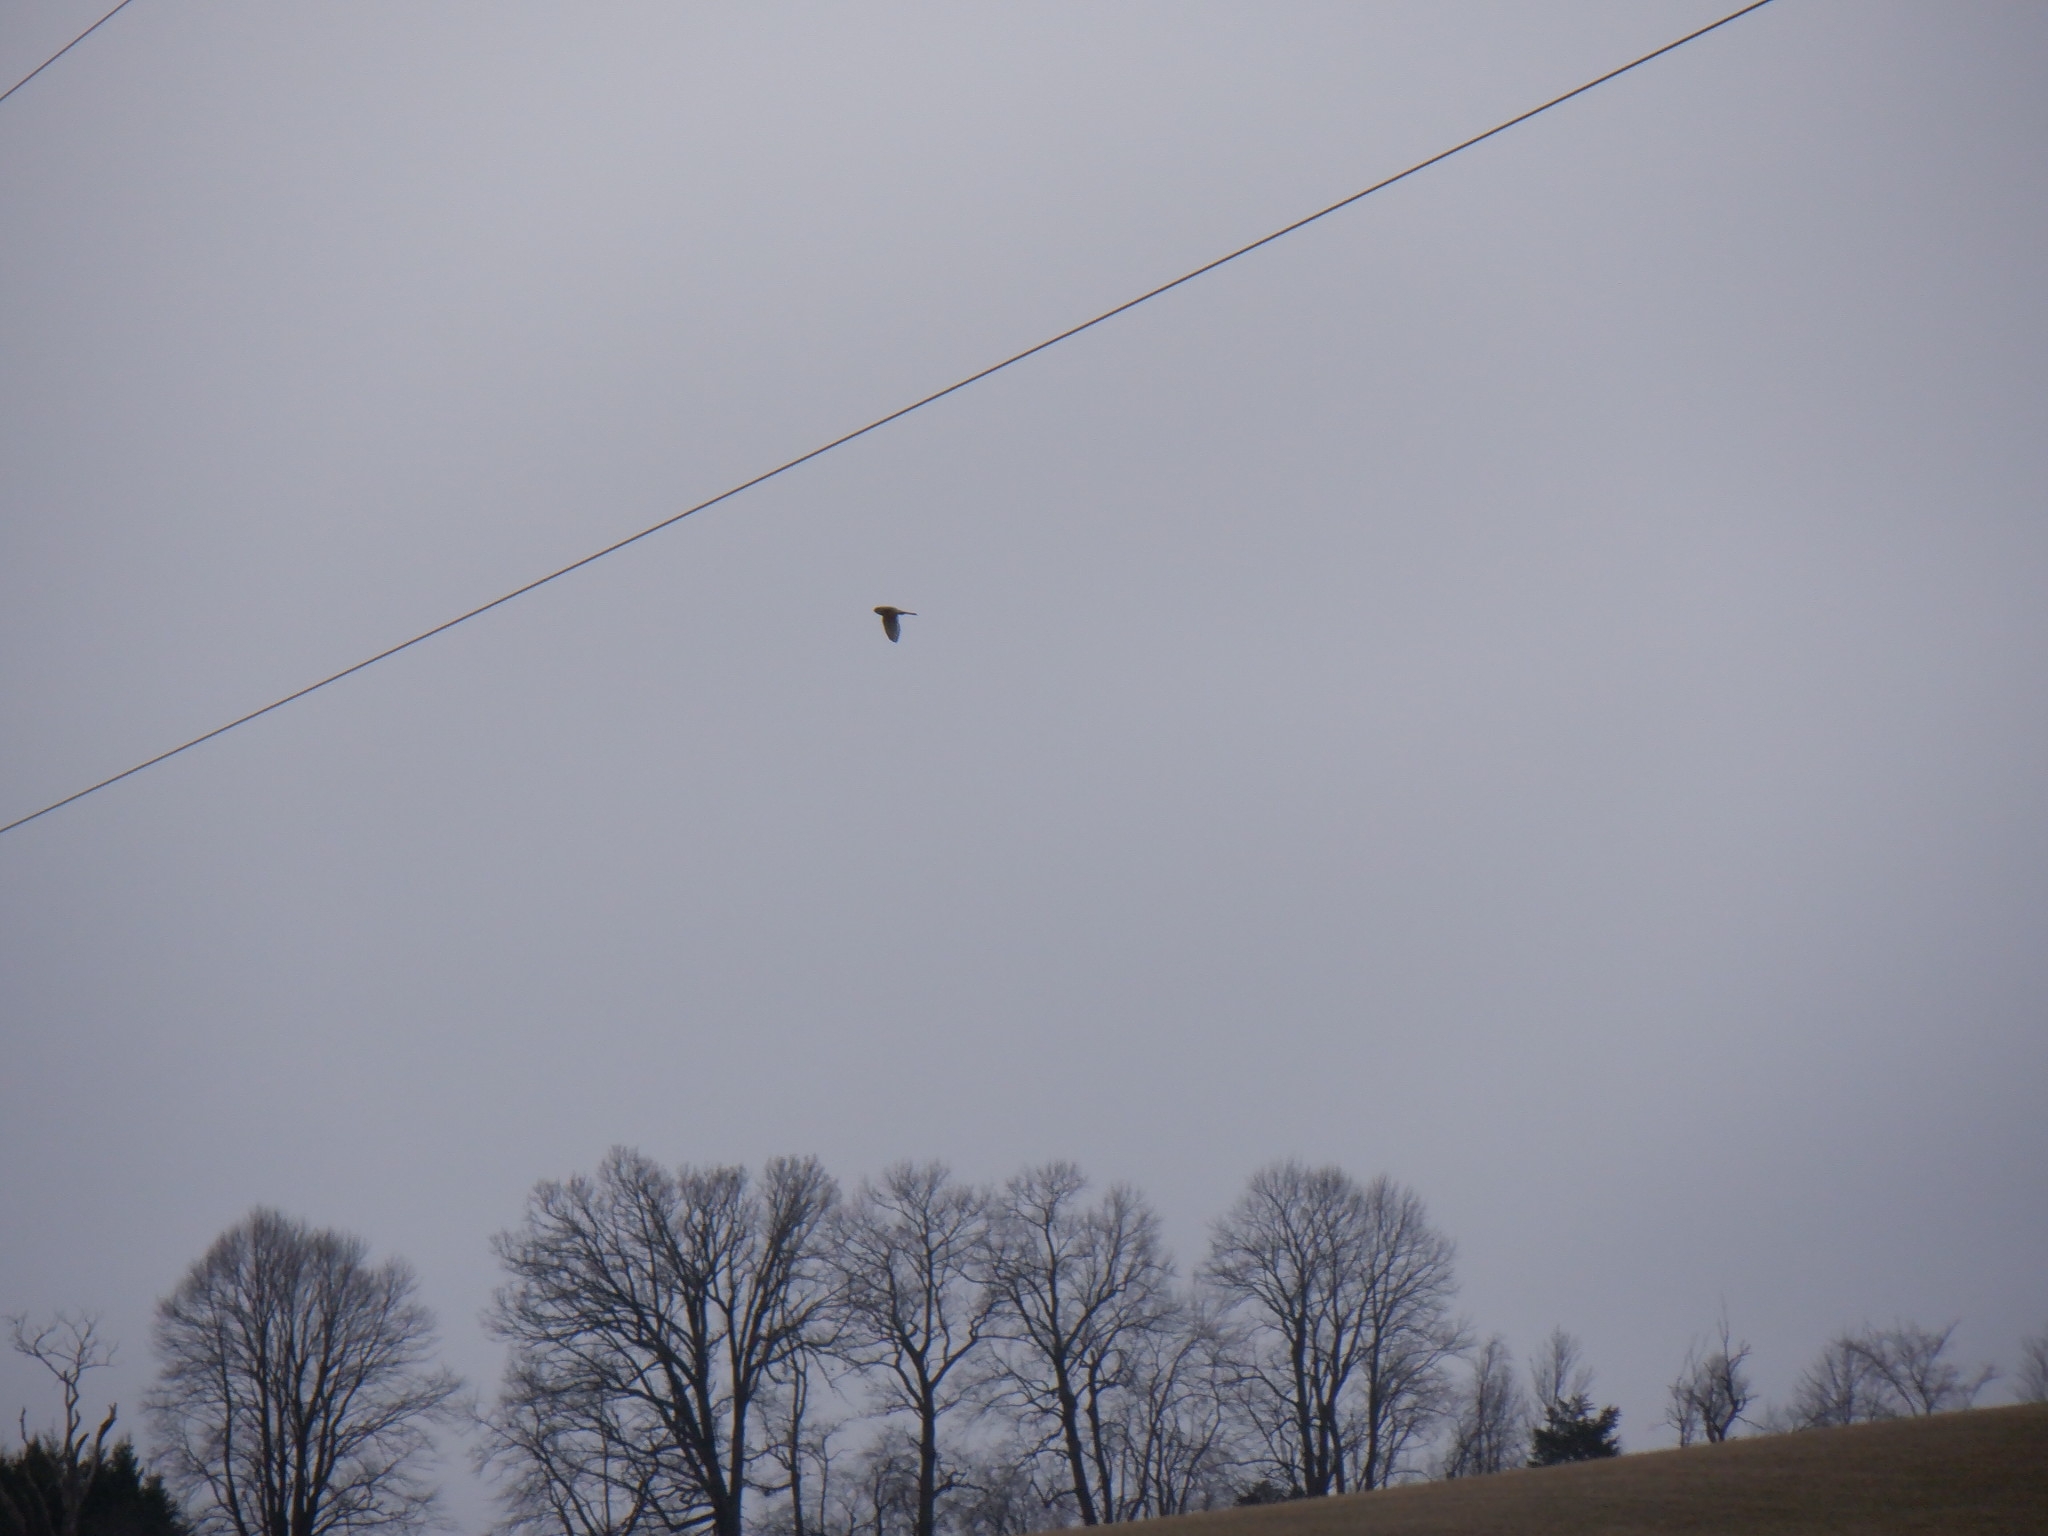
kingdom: Animalia
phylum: Chordata
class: Aves
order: Falconiformes
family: Falconidae
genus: Falco
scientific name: Falco sparverius
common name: American kestrel
